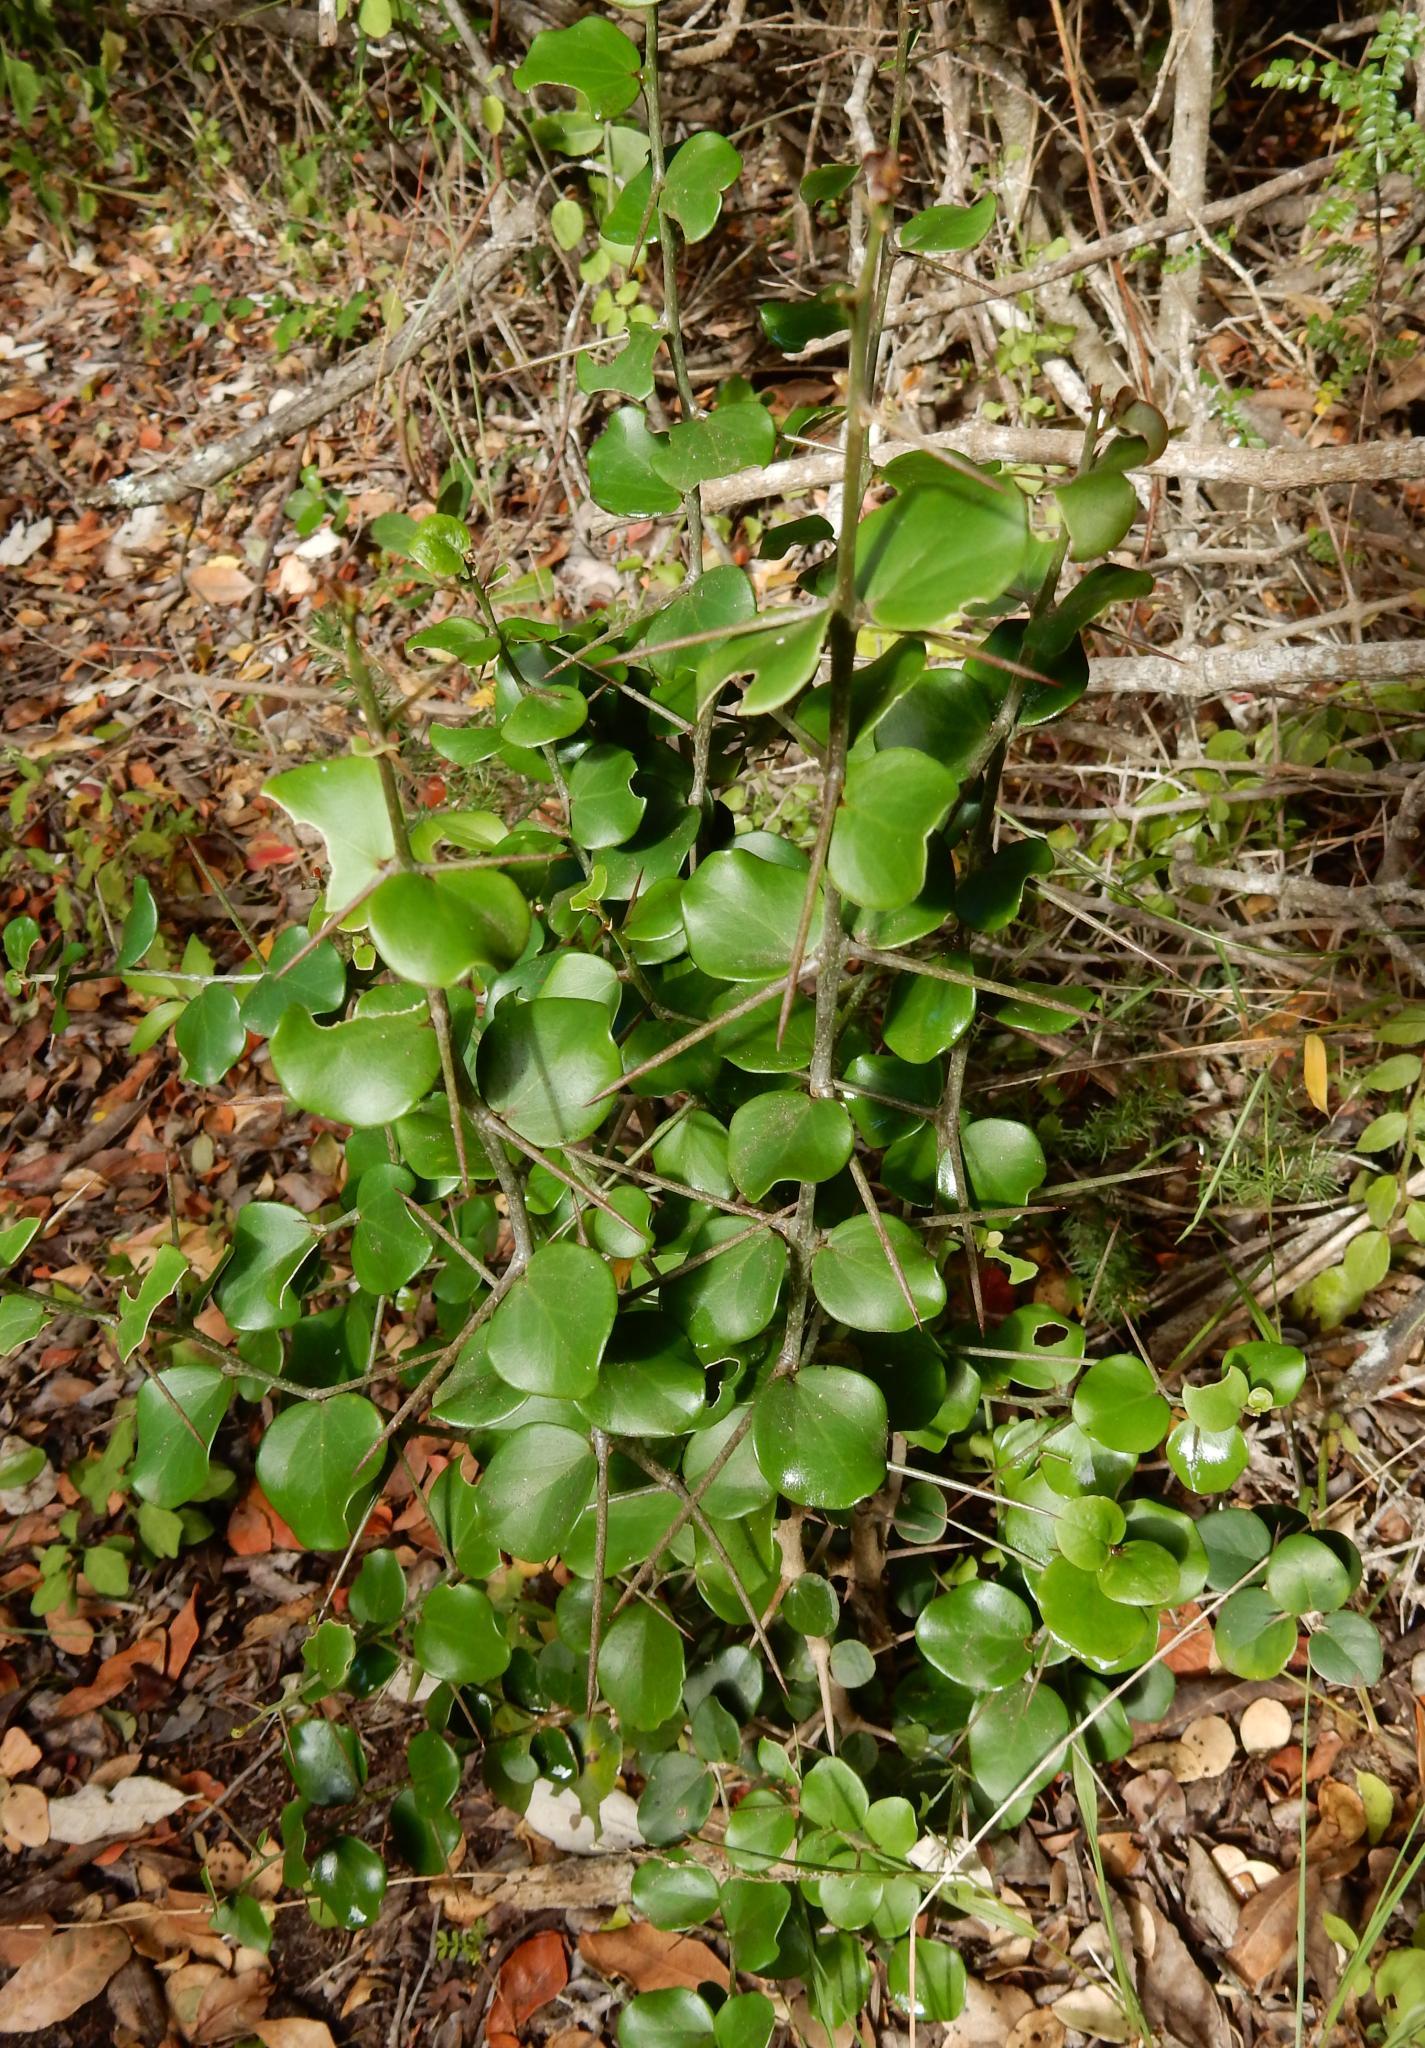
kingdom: Plantae
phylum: Tracheophyta
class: Magnoliopsida
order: Malpighiales
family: Salicaceae
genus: Dovyalis
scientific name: Dovyalis rotundifolia
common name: Dune sourberry
